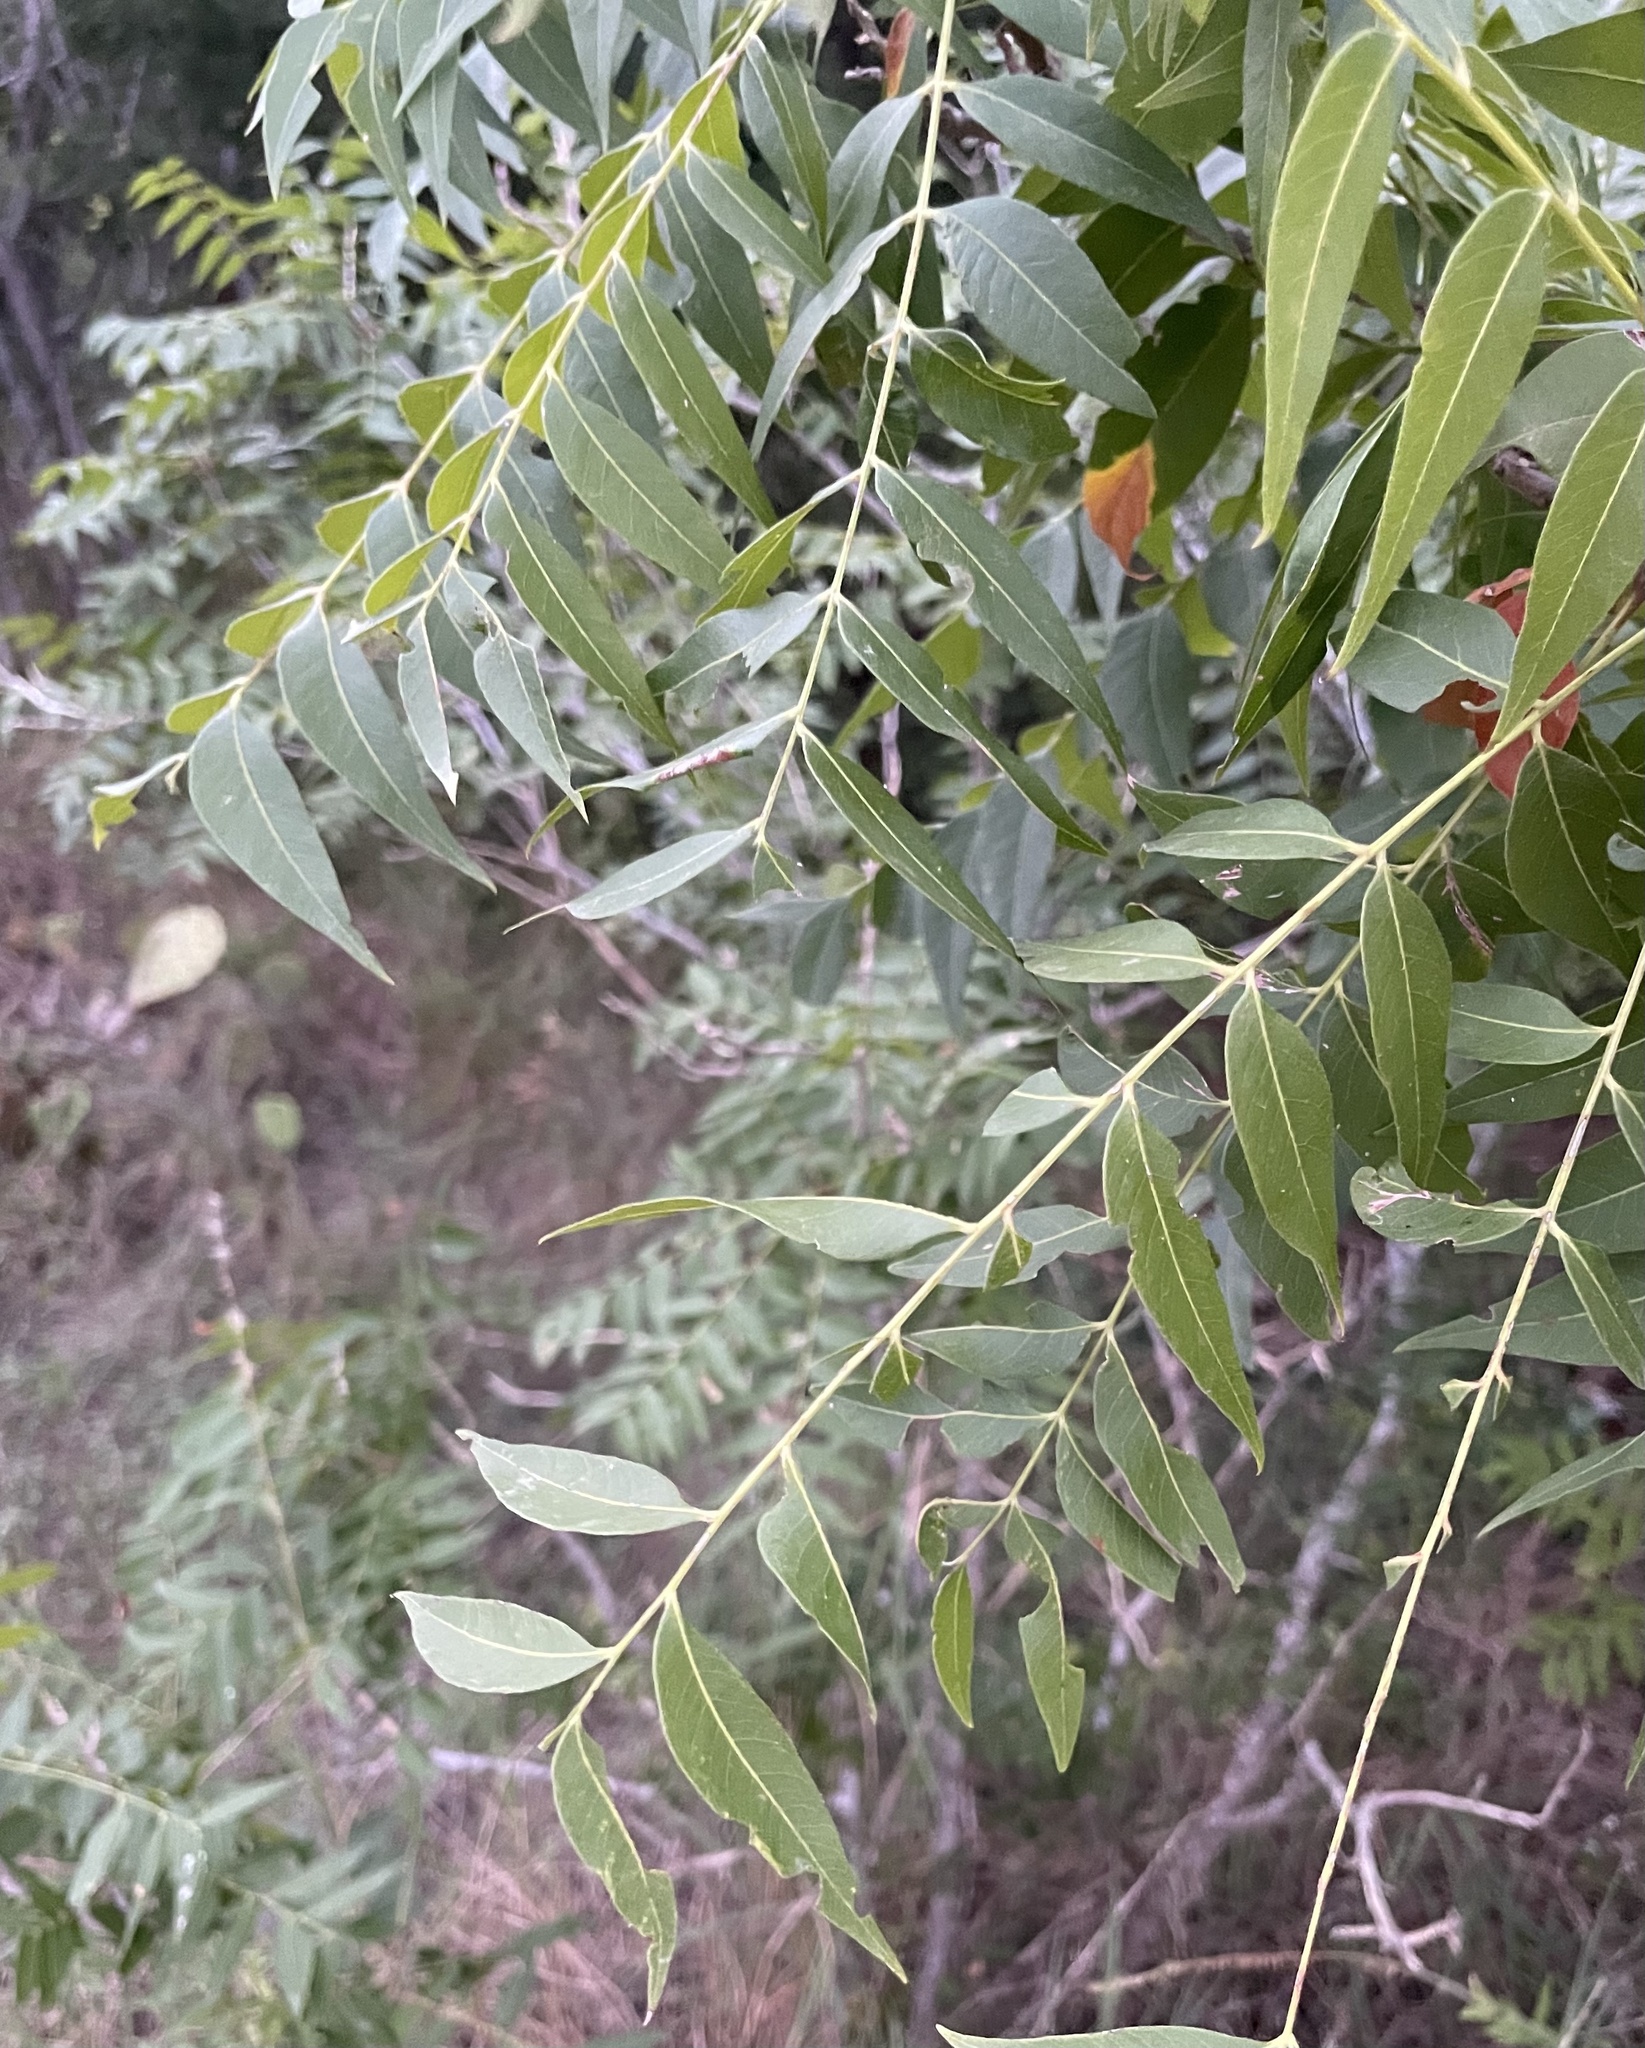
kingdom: Plantae
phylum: Tracheophyta
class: Magnoliopsida
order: Sapindales
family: Sapindaceae
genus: Sapindus
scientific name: Sapindus drummondii
